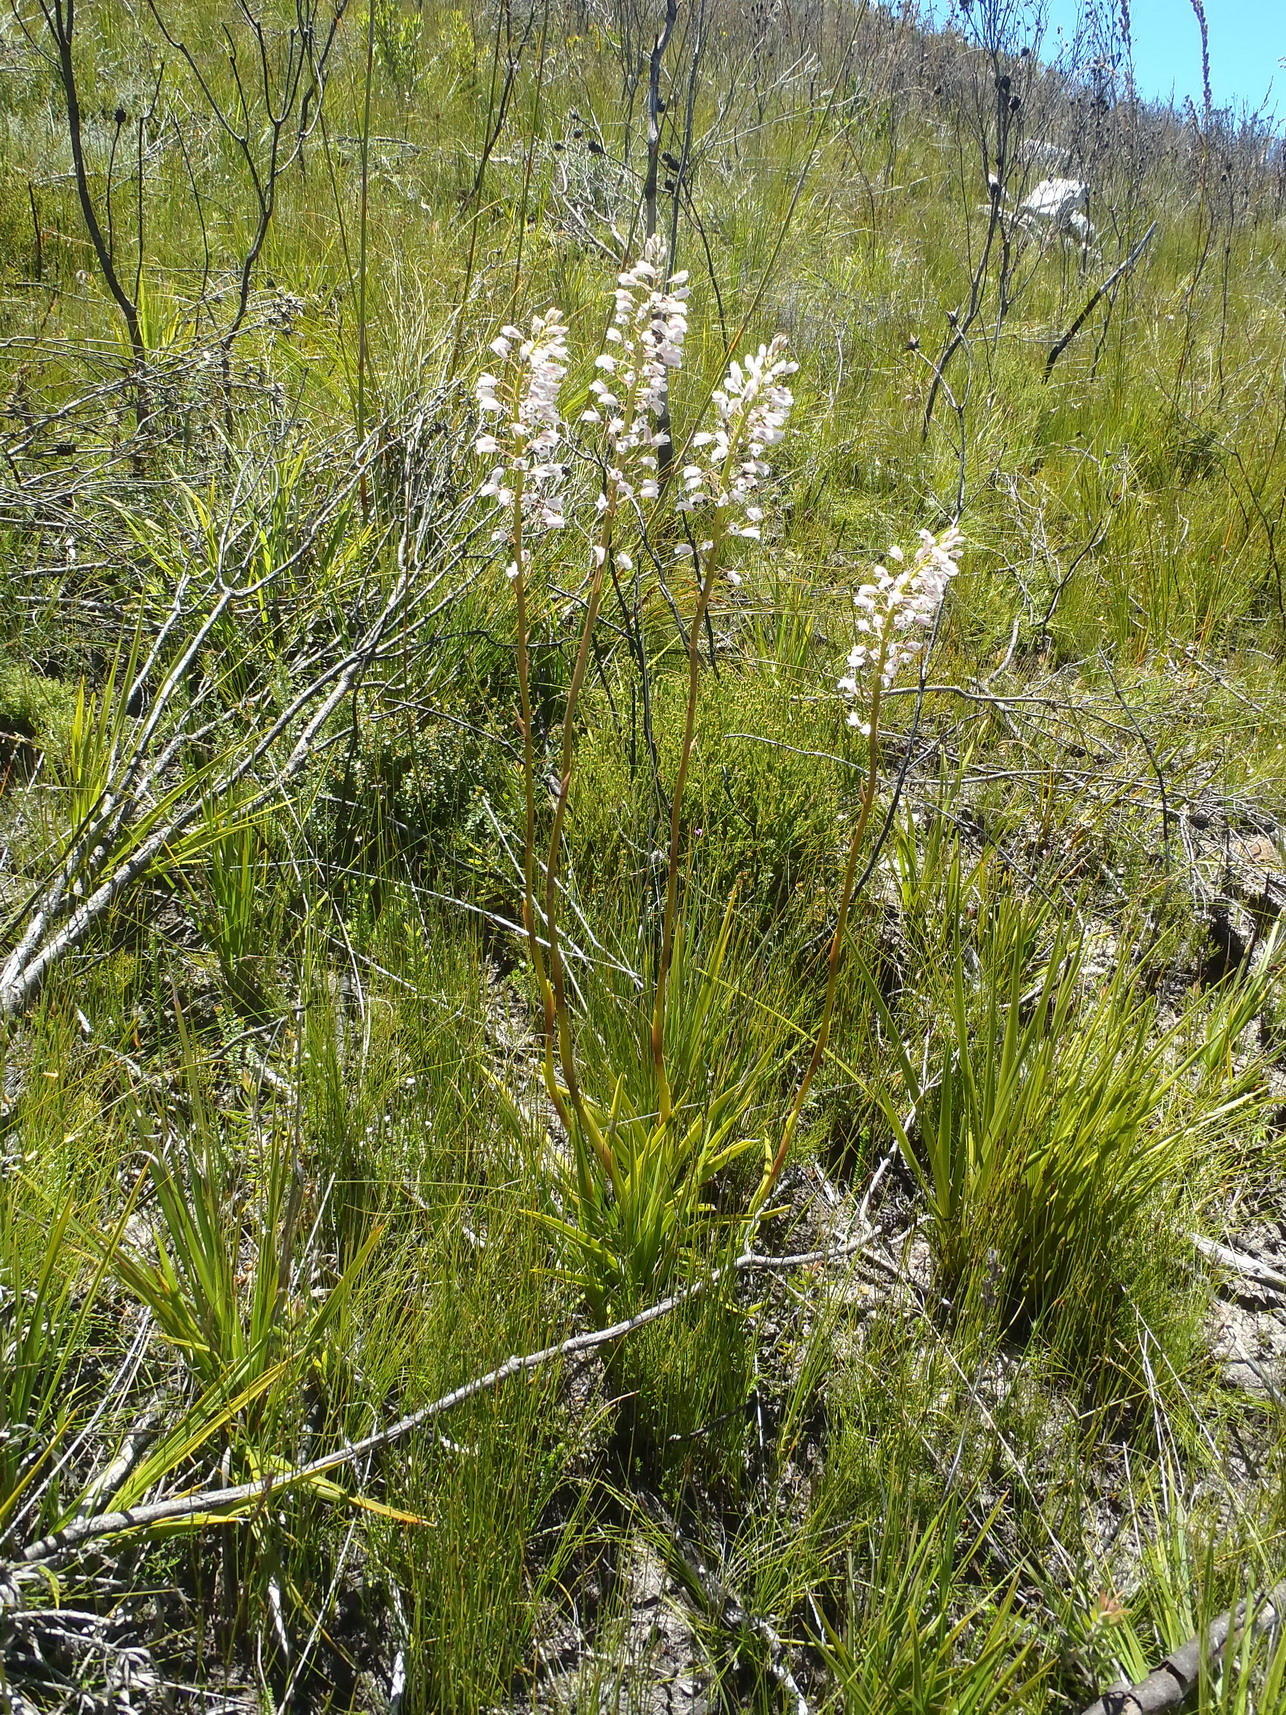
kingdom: Plantae
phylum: Tracheophyta
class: Liliopsida
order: Asparagales
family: Orchidaceae
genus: Eulophia
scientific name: Eulophia barbata
